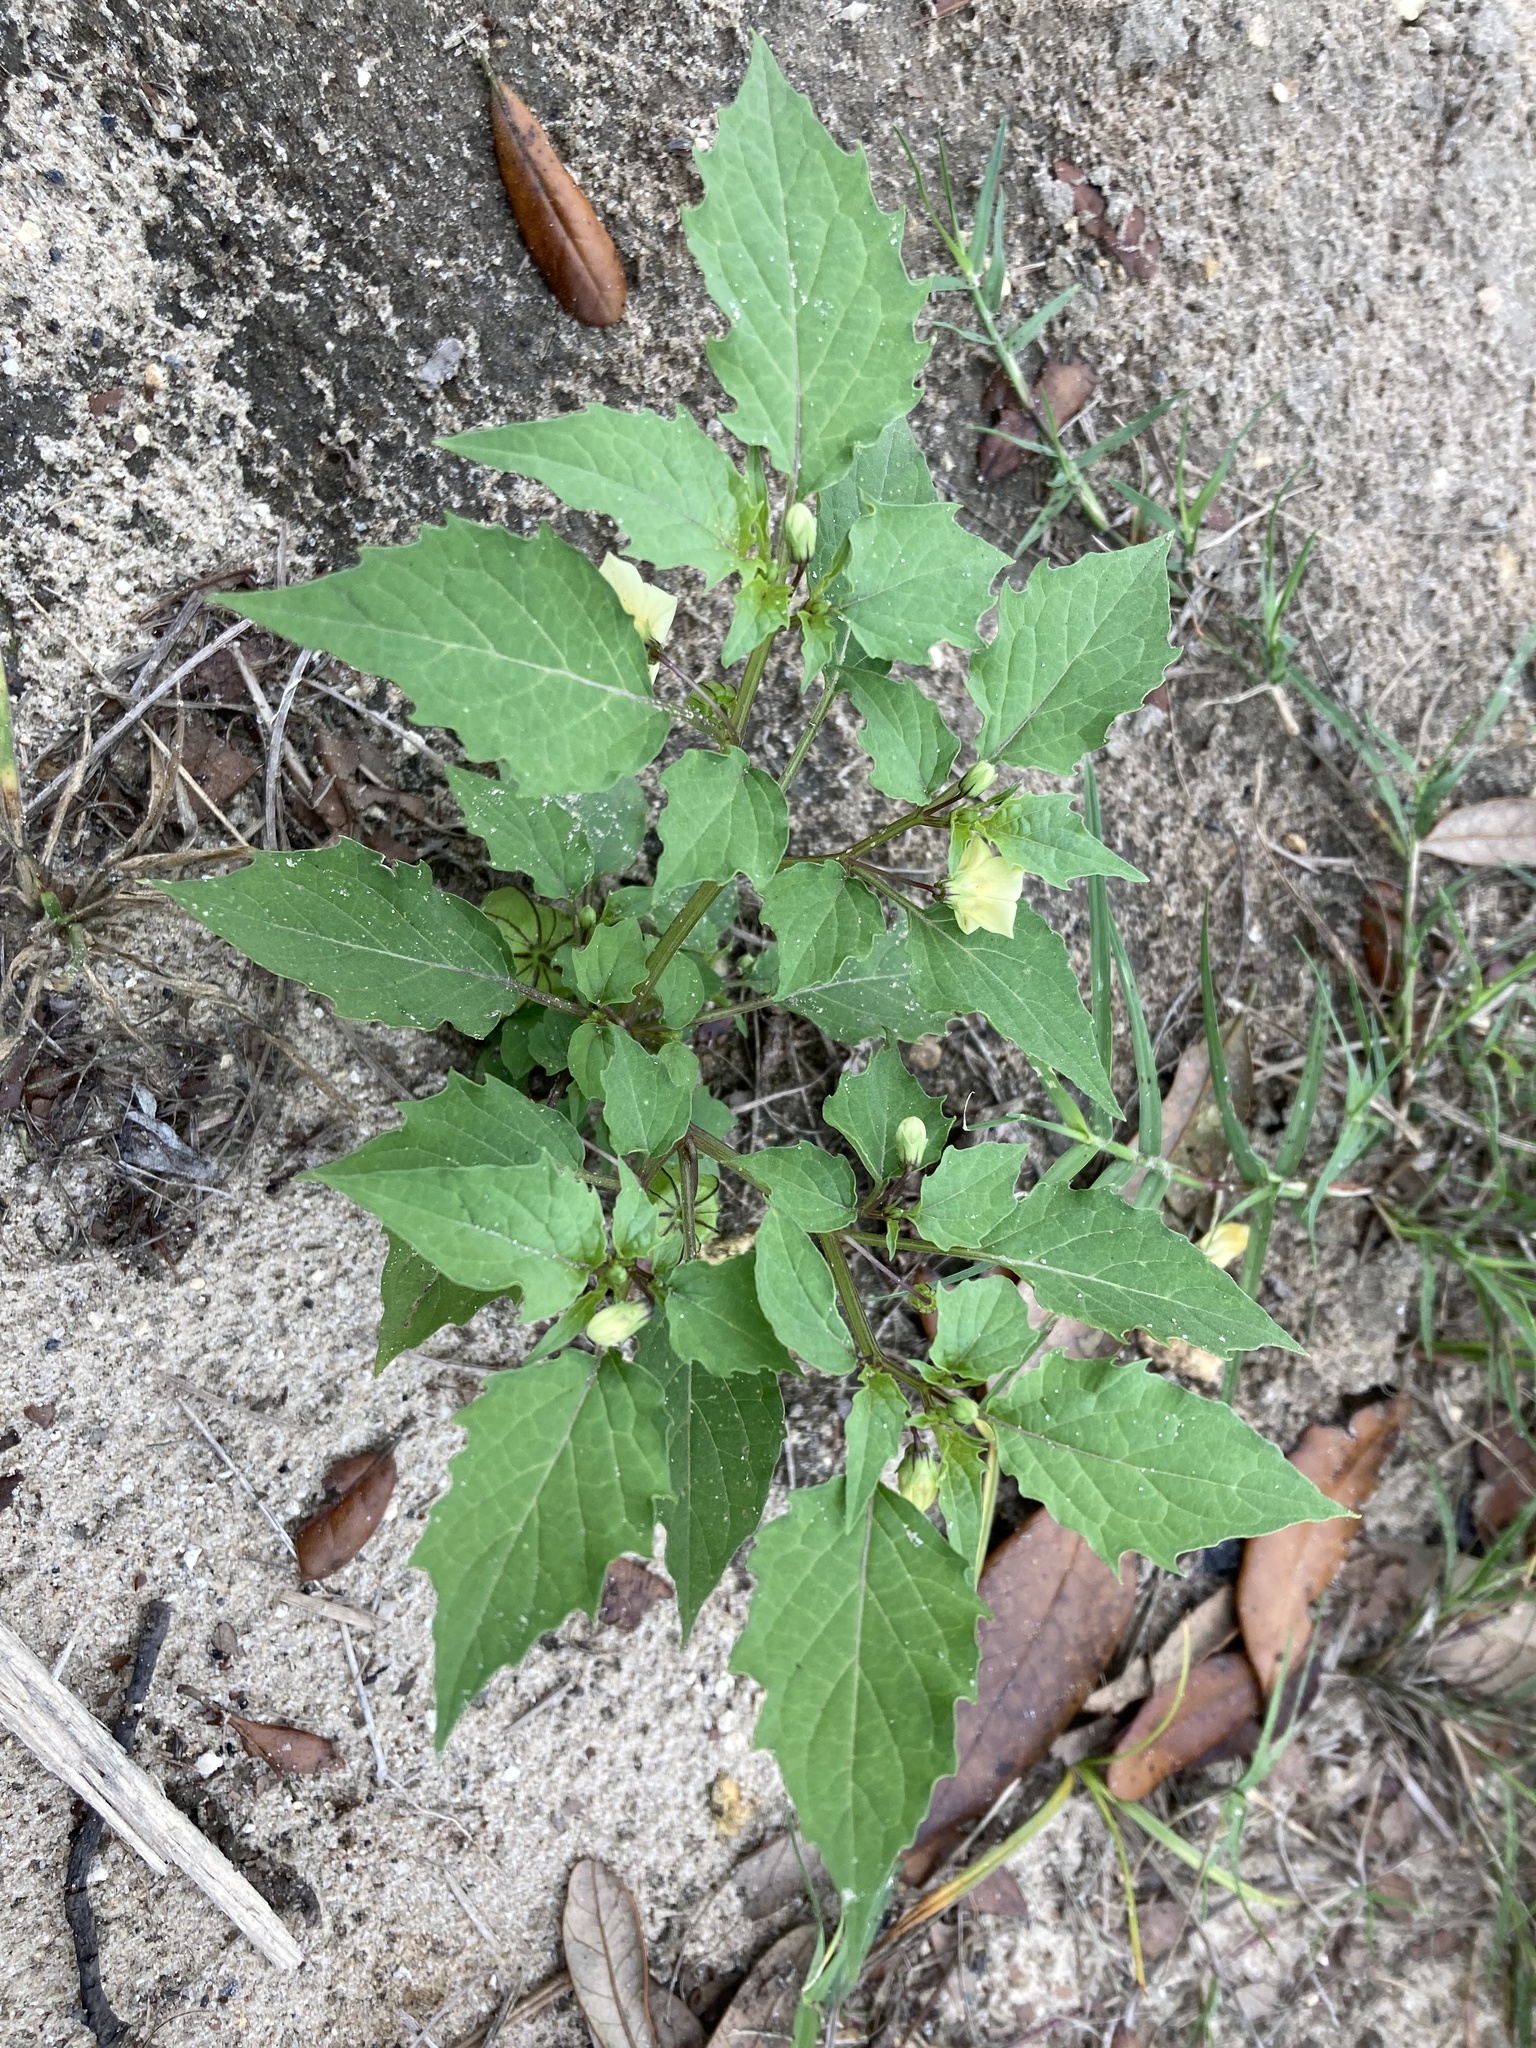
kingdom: Plantae
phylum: Tracheophyta
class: Magnoliopsida
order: Solanales
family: Solanaceae
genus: Physalis
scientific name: Physalis angulata
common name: Angular winter-cherry
